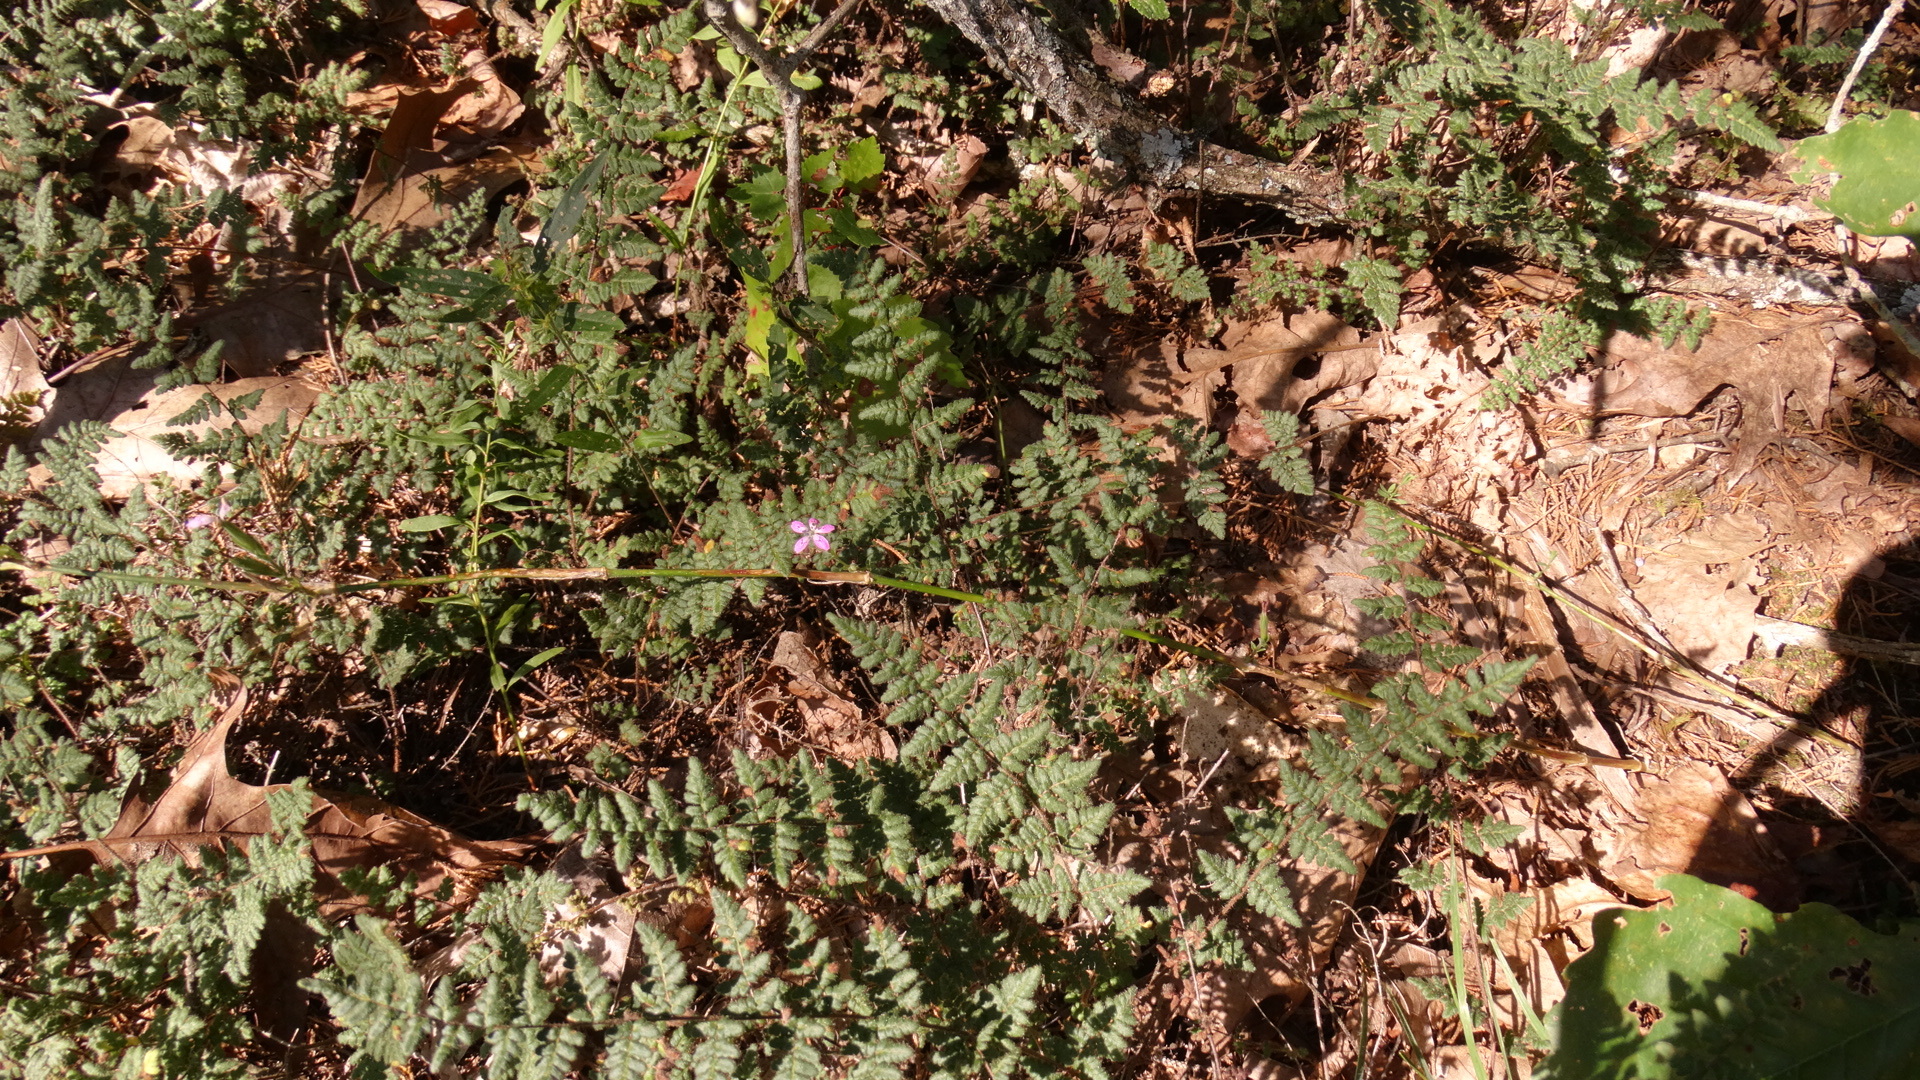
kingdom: Plantae
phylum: Tracheophyta
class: Polypodiopsida
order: Polypodiales
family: Pteridaceae
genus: Myriopteris
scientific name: Myriopteris lanosa
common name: Hairy lip fern
